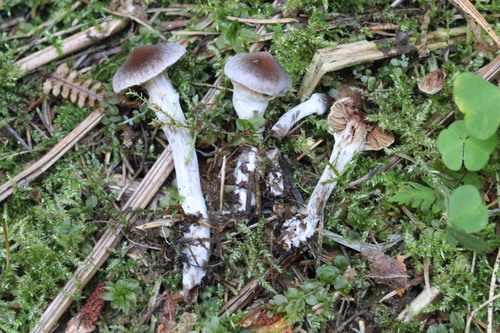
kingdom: Fungi
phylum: Basidiomycota
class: Agaricomycetes
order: Agaricales
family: Cortinariaceae
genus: Cortinarius
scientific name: Cortinarius flexipes
